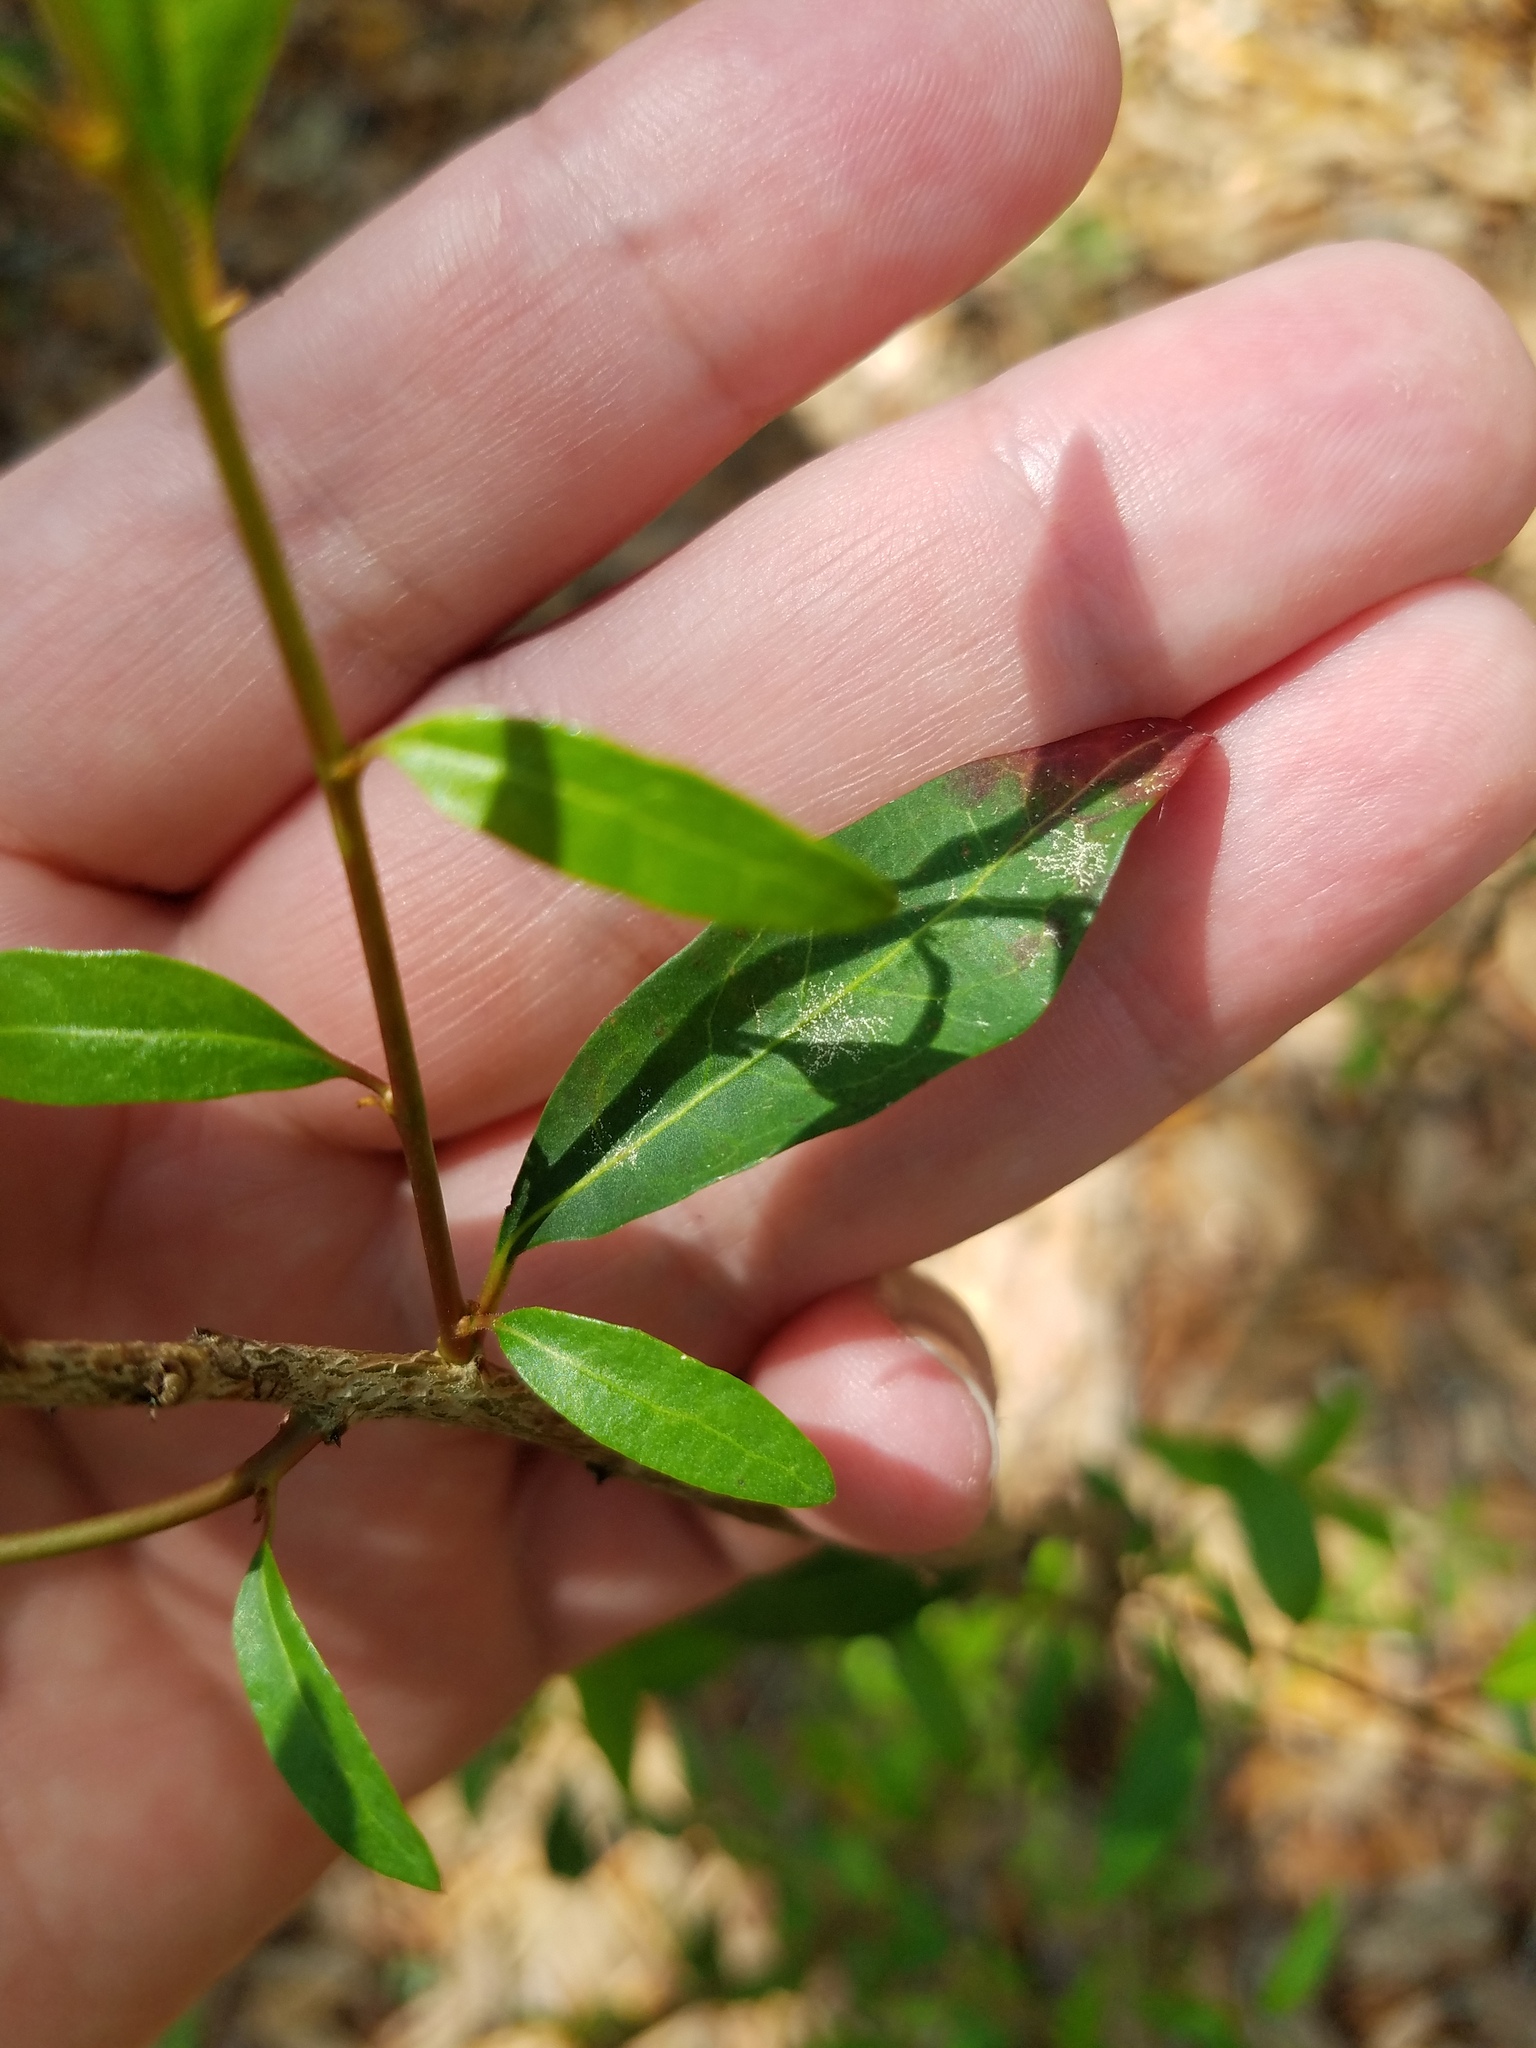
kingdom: Plantae
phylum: Tracheophyta
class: Magnoliopsida
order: Malpighiales
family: Euphorbiaceae
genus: Ditrysinia
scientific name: Ditrysinia fruticosa
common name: Gulf sebastian-bush
